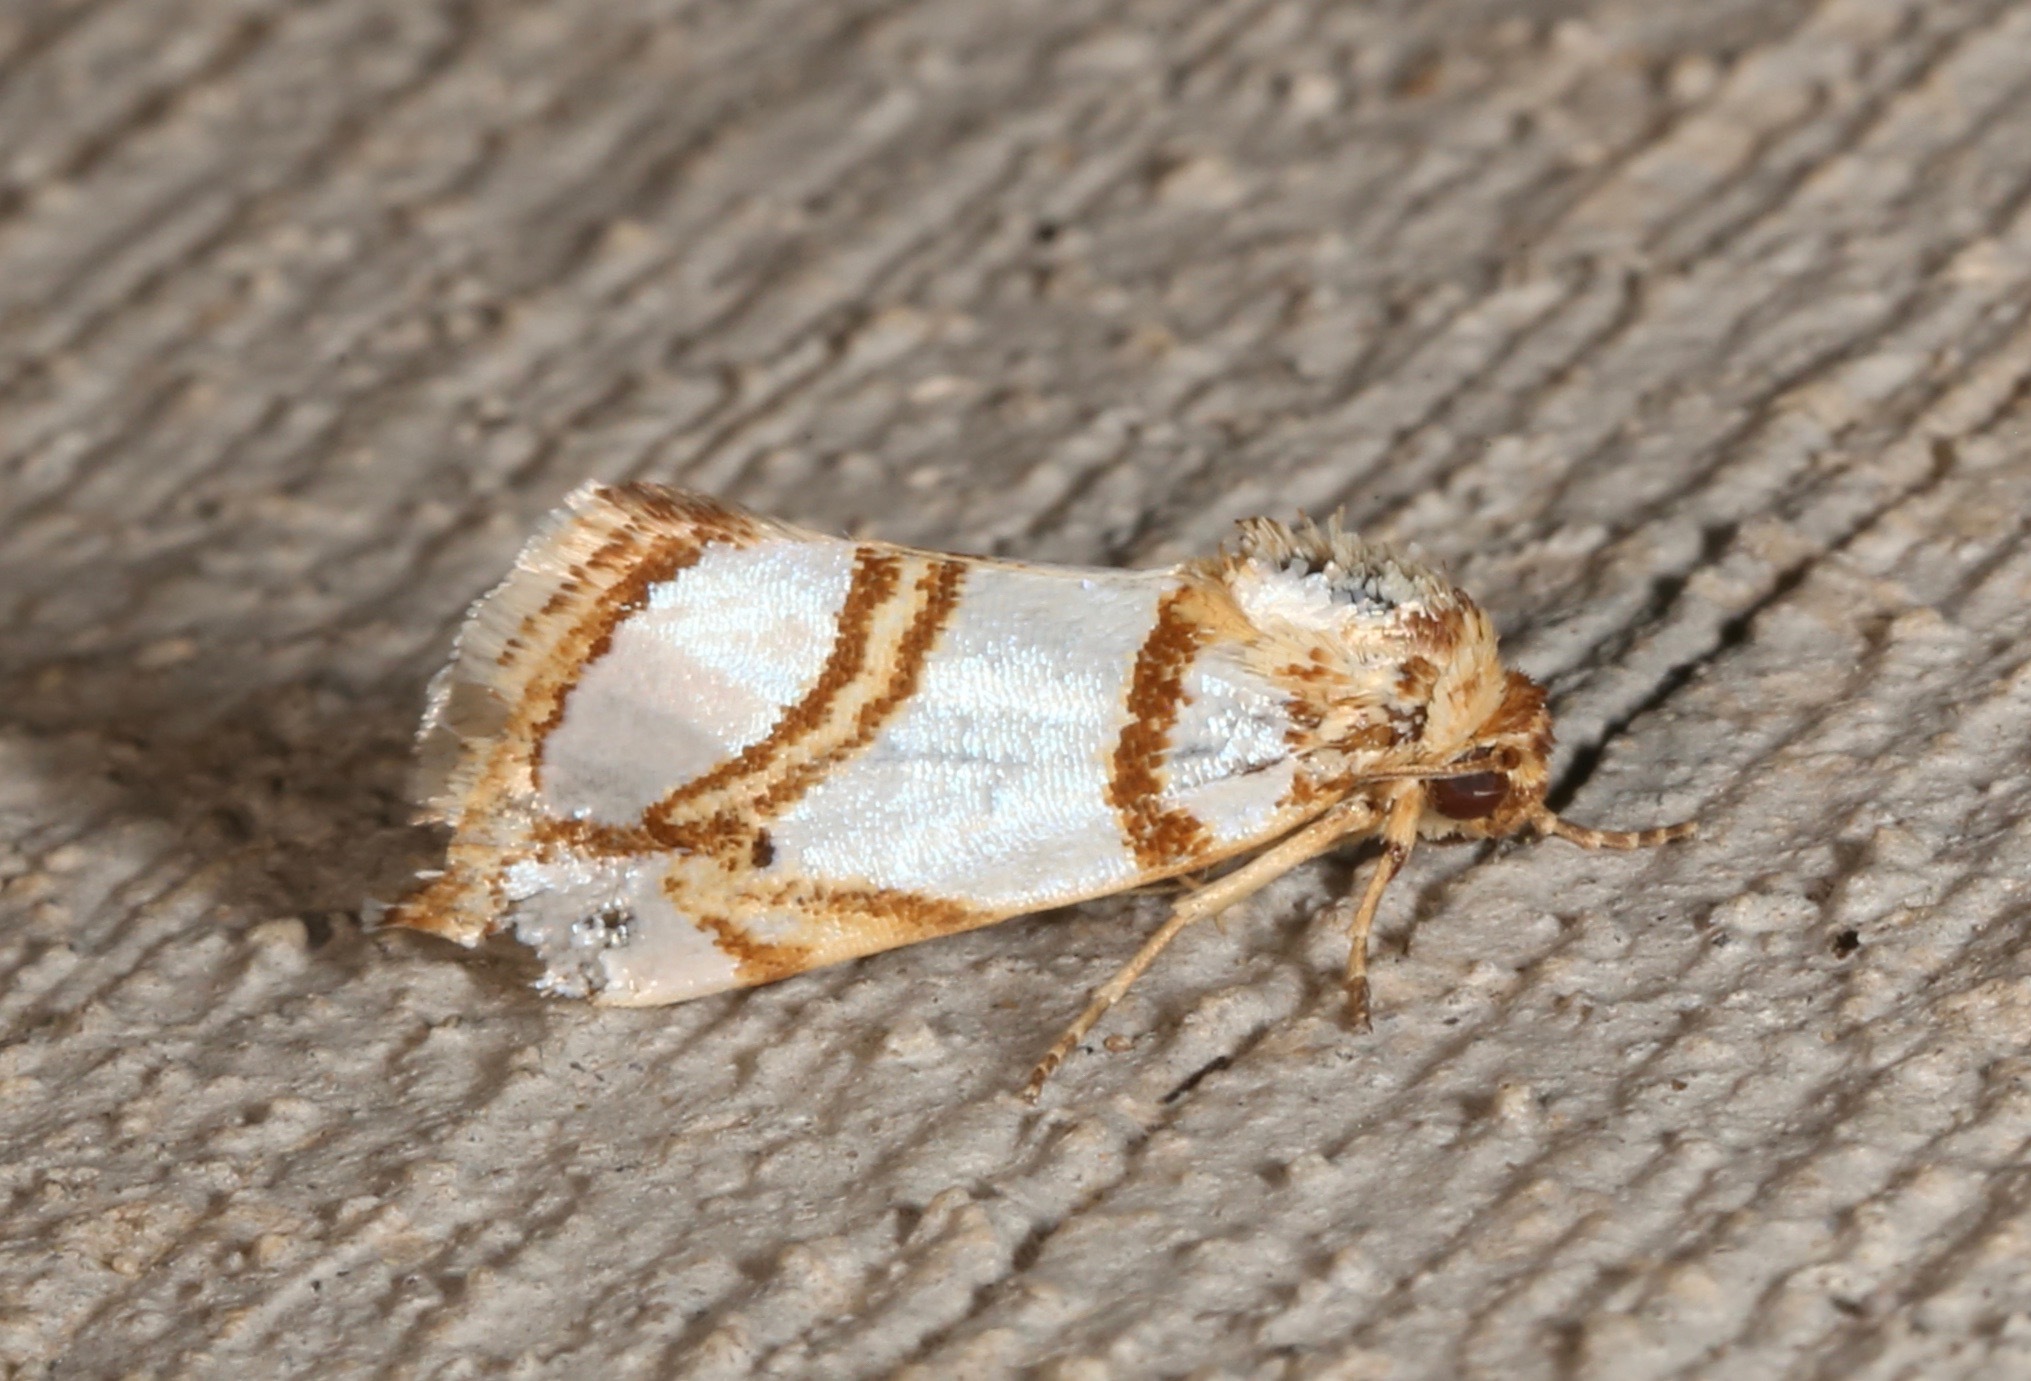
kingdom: Animalia
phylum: Arthropoda
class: Insecta
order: Lepidoptera
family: Noctuidae
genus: Argentostiria
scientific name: Argentostiria koebelei
